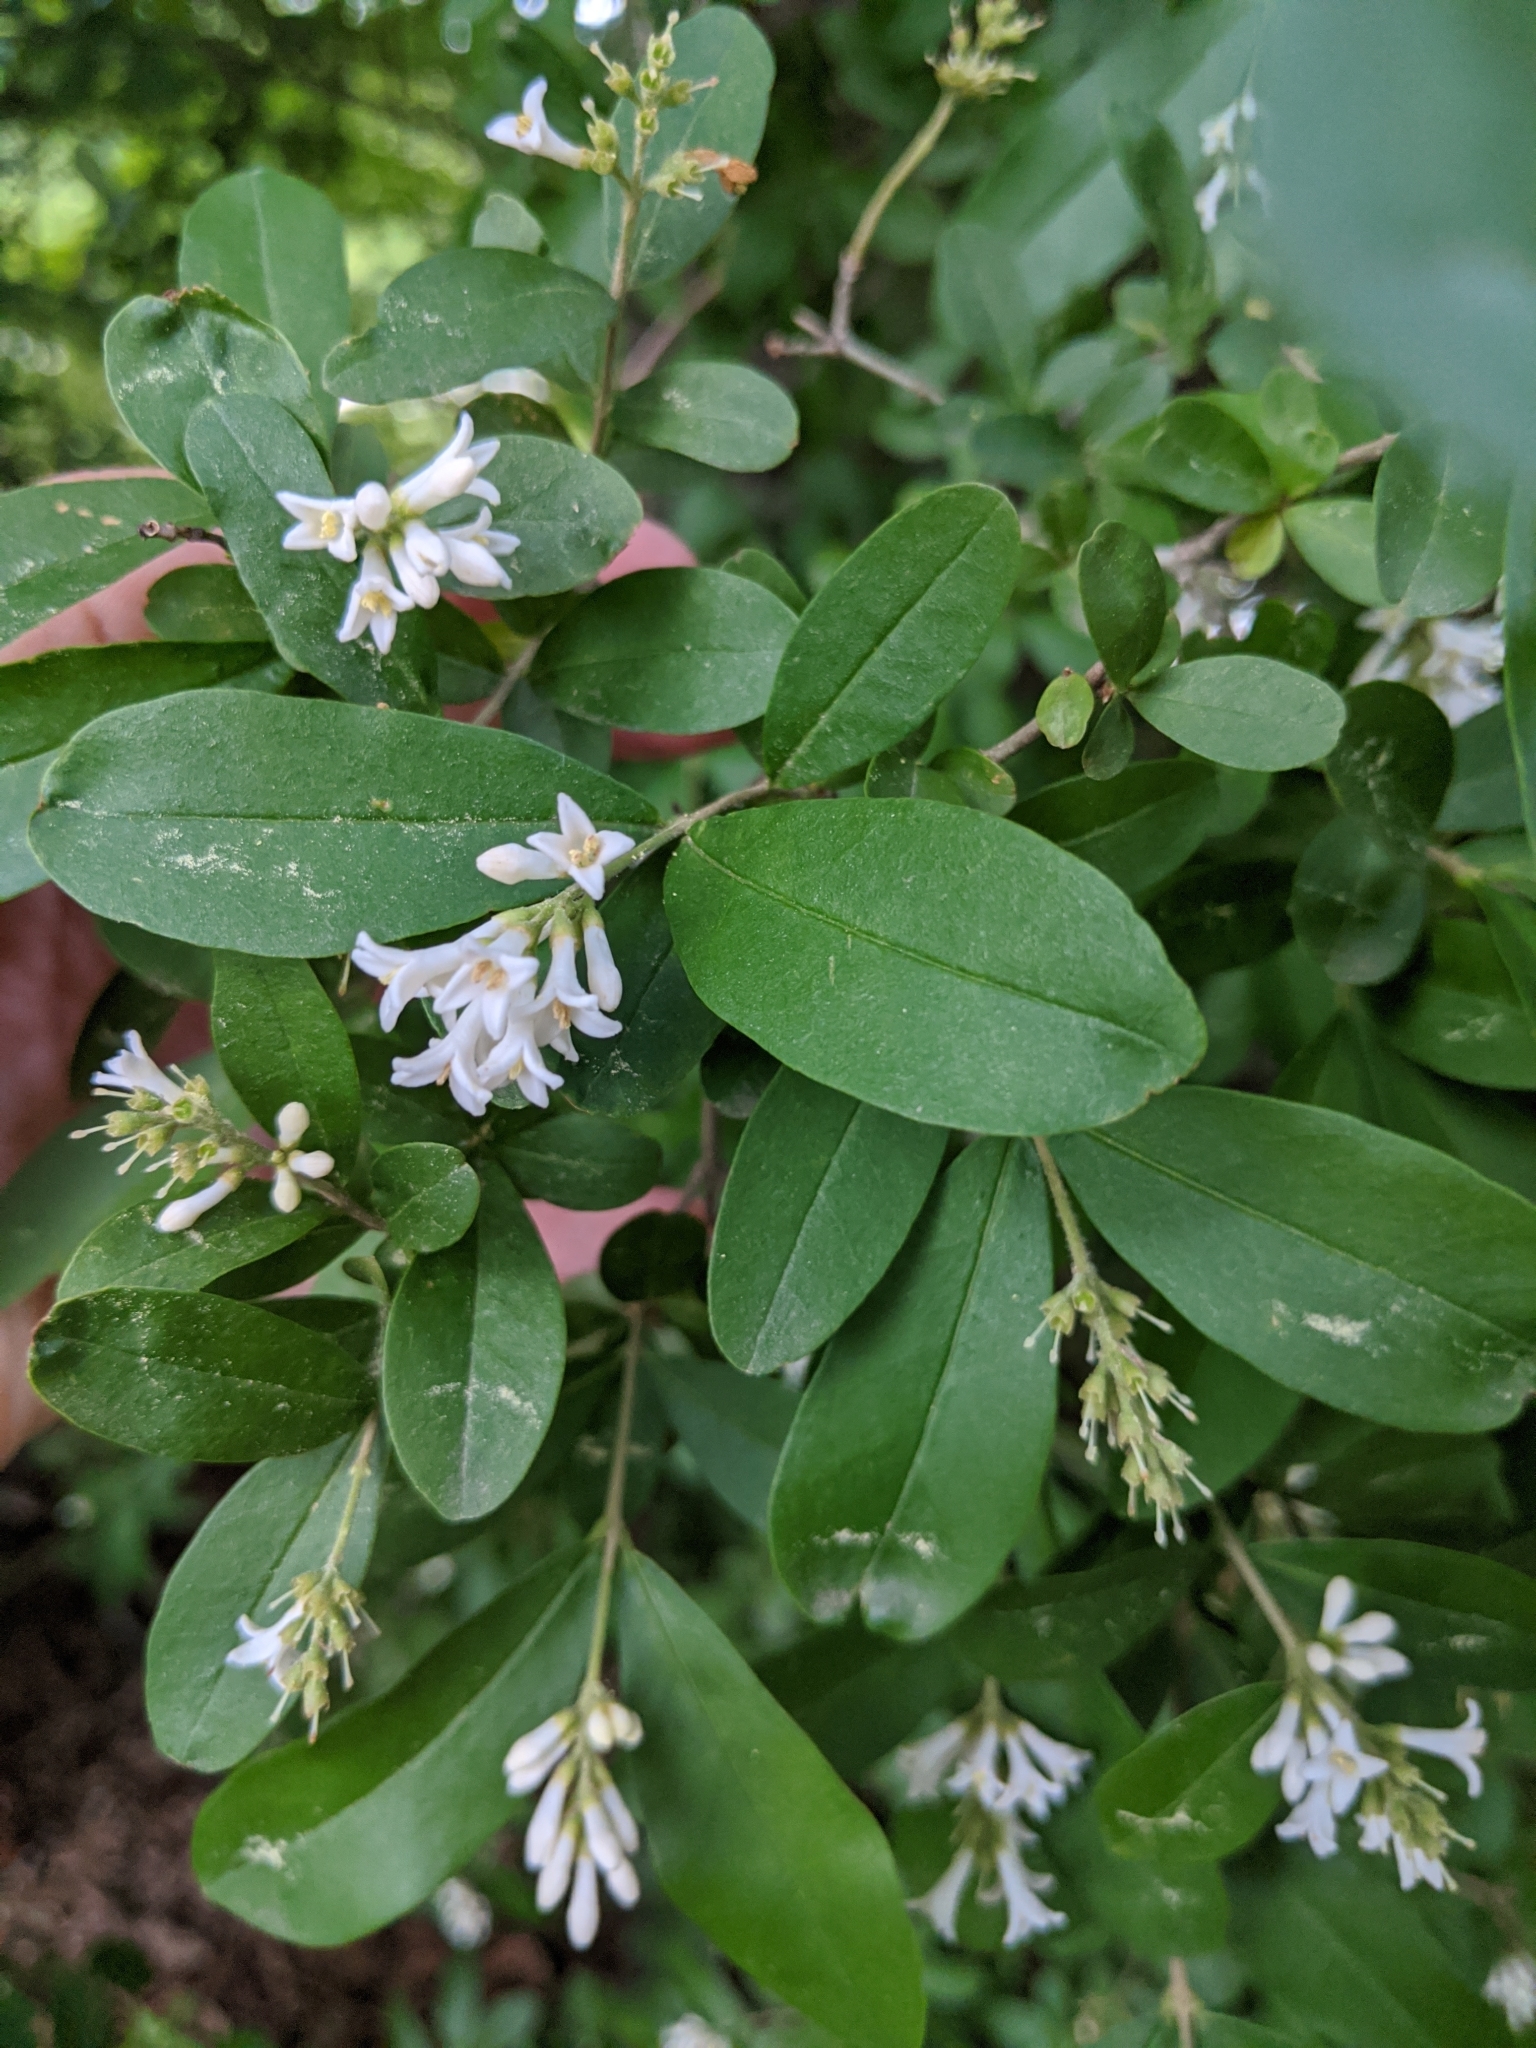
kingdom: Plantae
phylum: Tracheophyta
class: Magnoliopsida
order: Lamiales
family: Oleaceae
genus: Ligustrum
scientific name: Ligustrum obtusifolium
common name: Border privet
